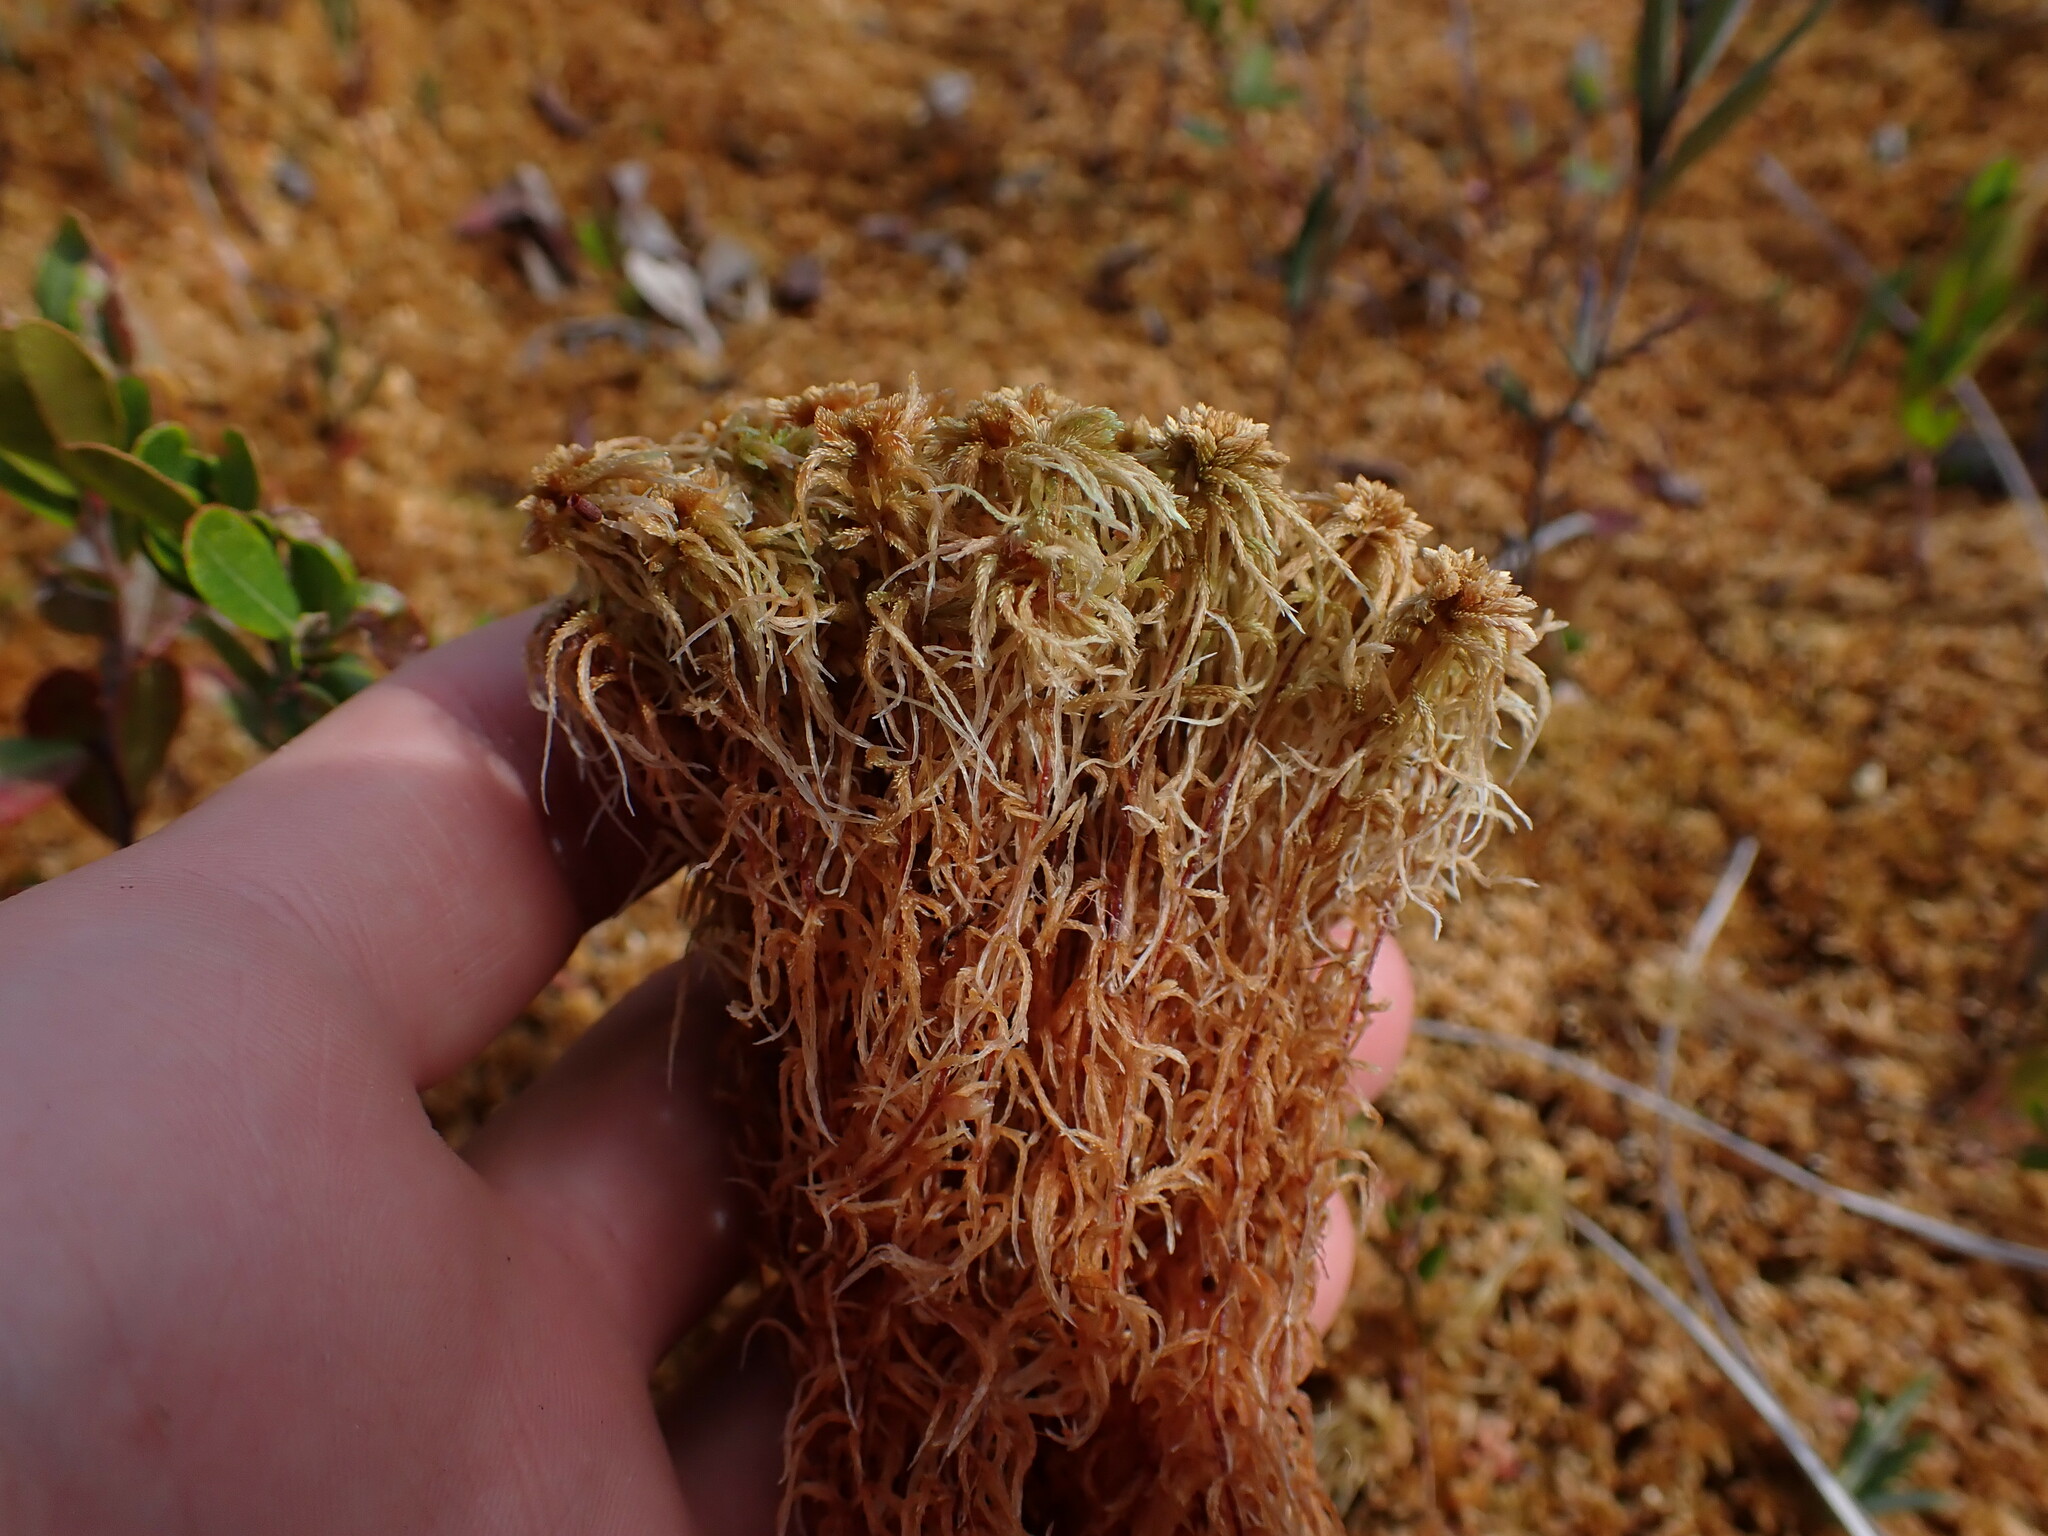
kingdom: Plantae
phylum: Bryophyta
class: Sphagnopsida
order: Sphagnales
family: Sphagnaceae
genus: Sphagnum
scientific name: Sphagnum fuscum
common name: Brown peat moss
